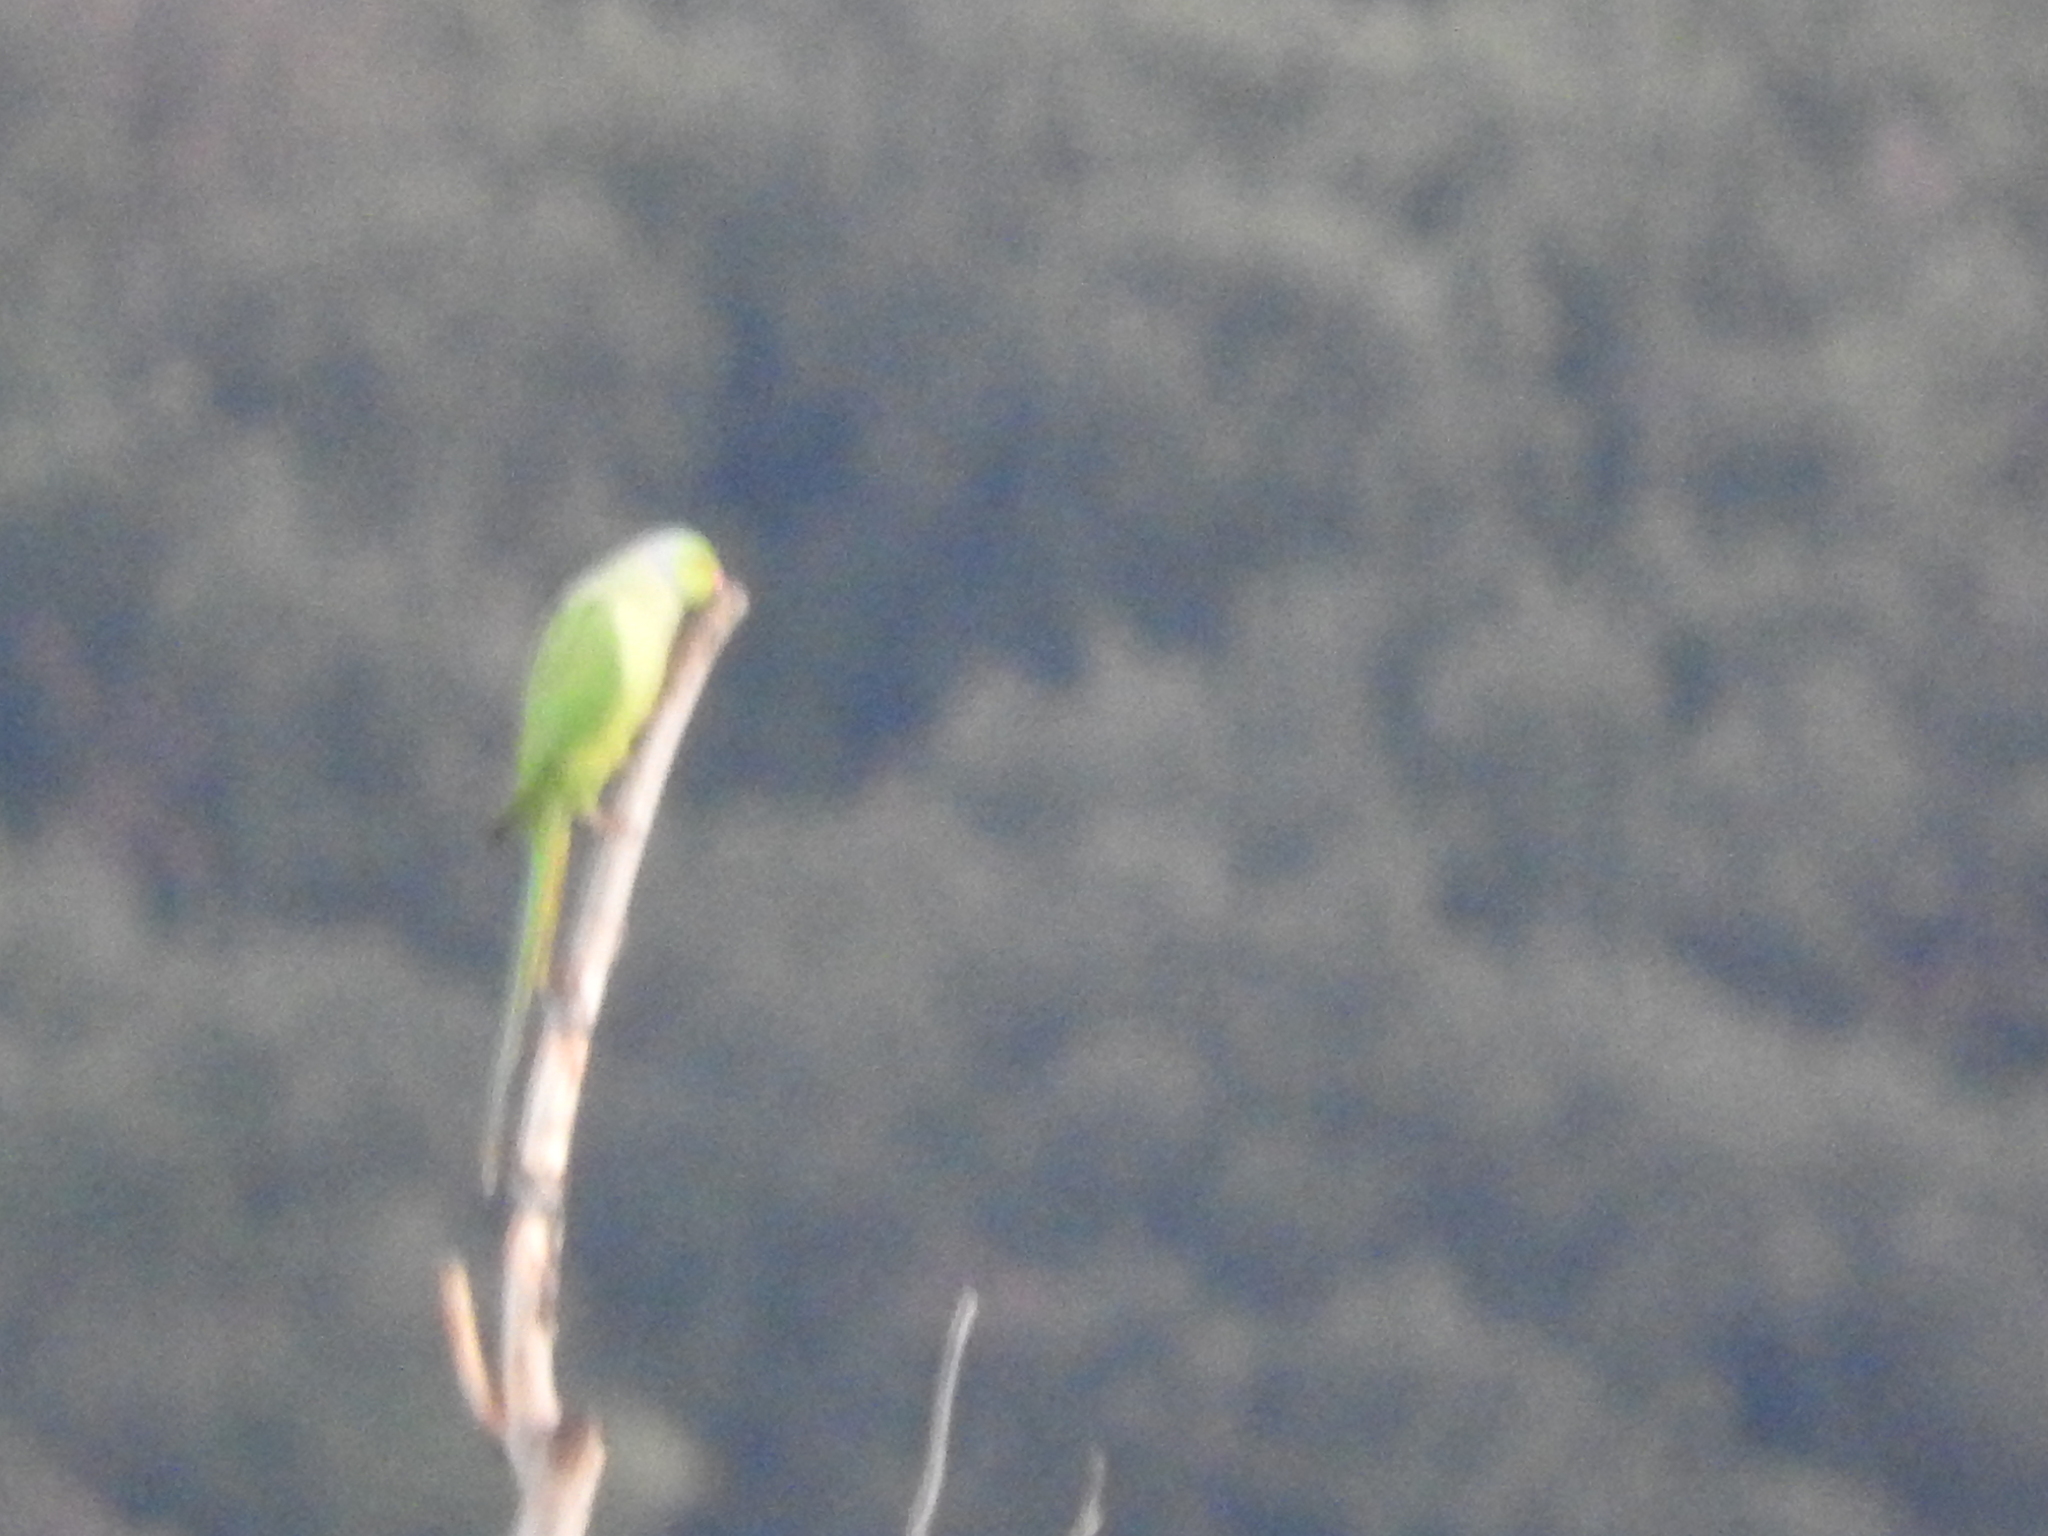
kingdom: Animalia
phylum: Chordata
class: Aves
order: Psittaciformes
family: Psittacidae
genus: Psittacula
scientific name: Psittacula krameri
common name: Rose-ringed parakeet
